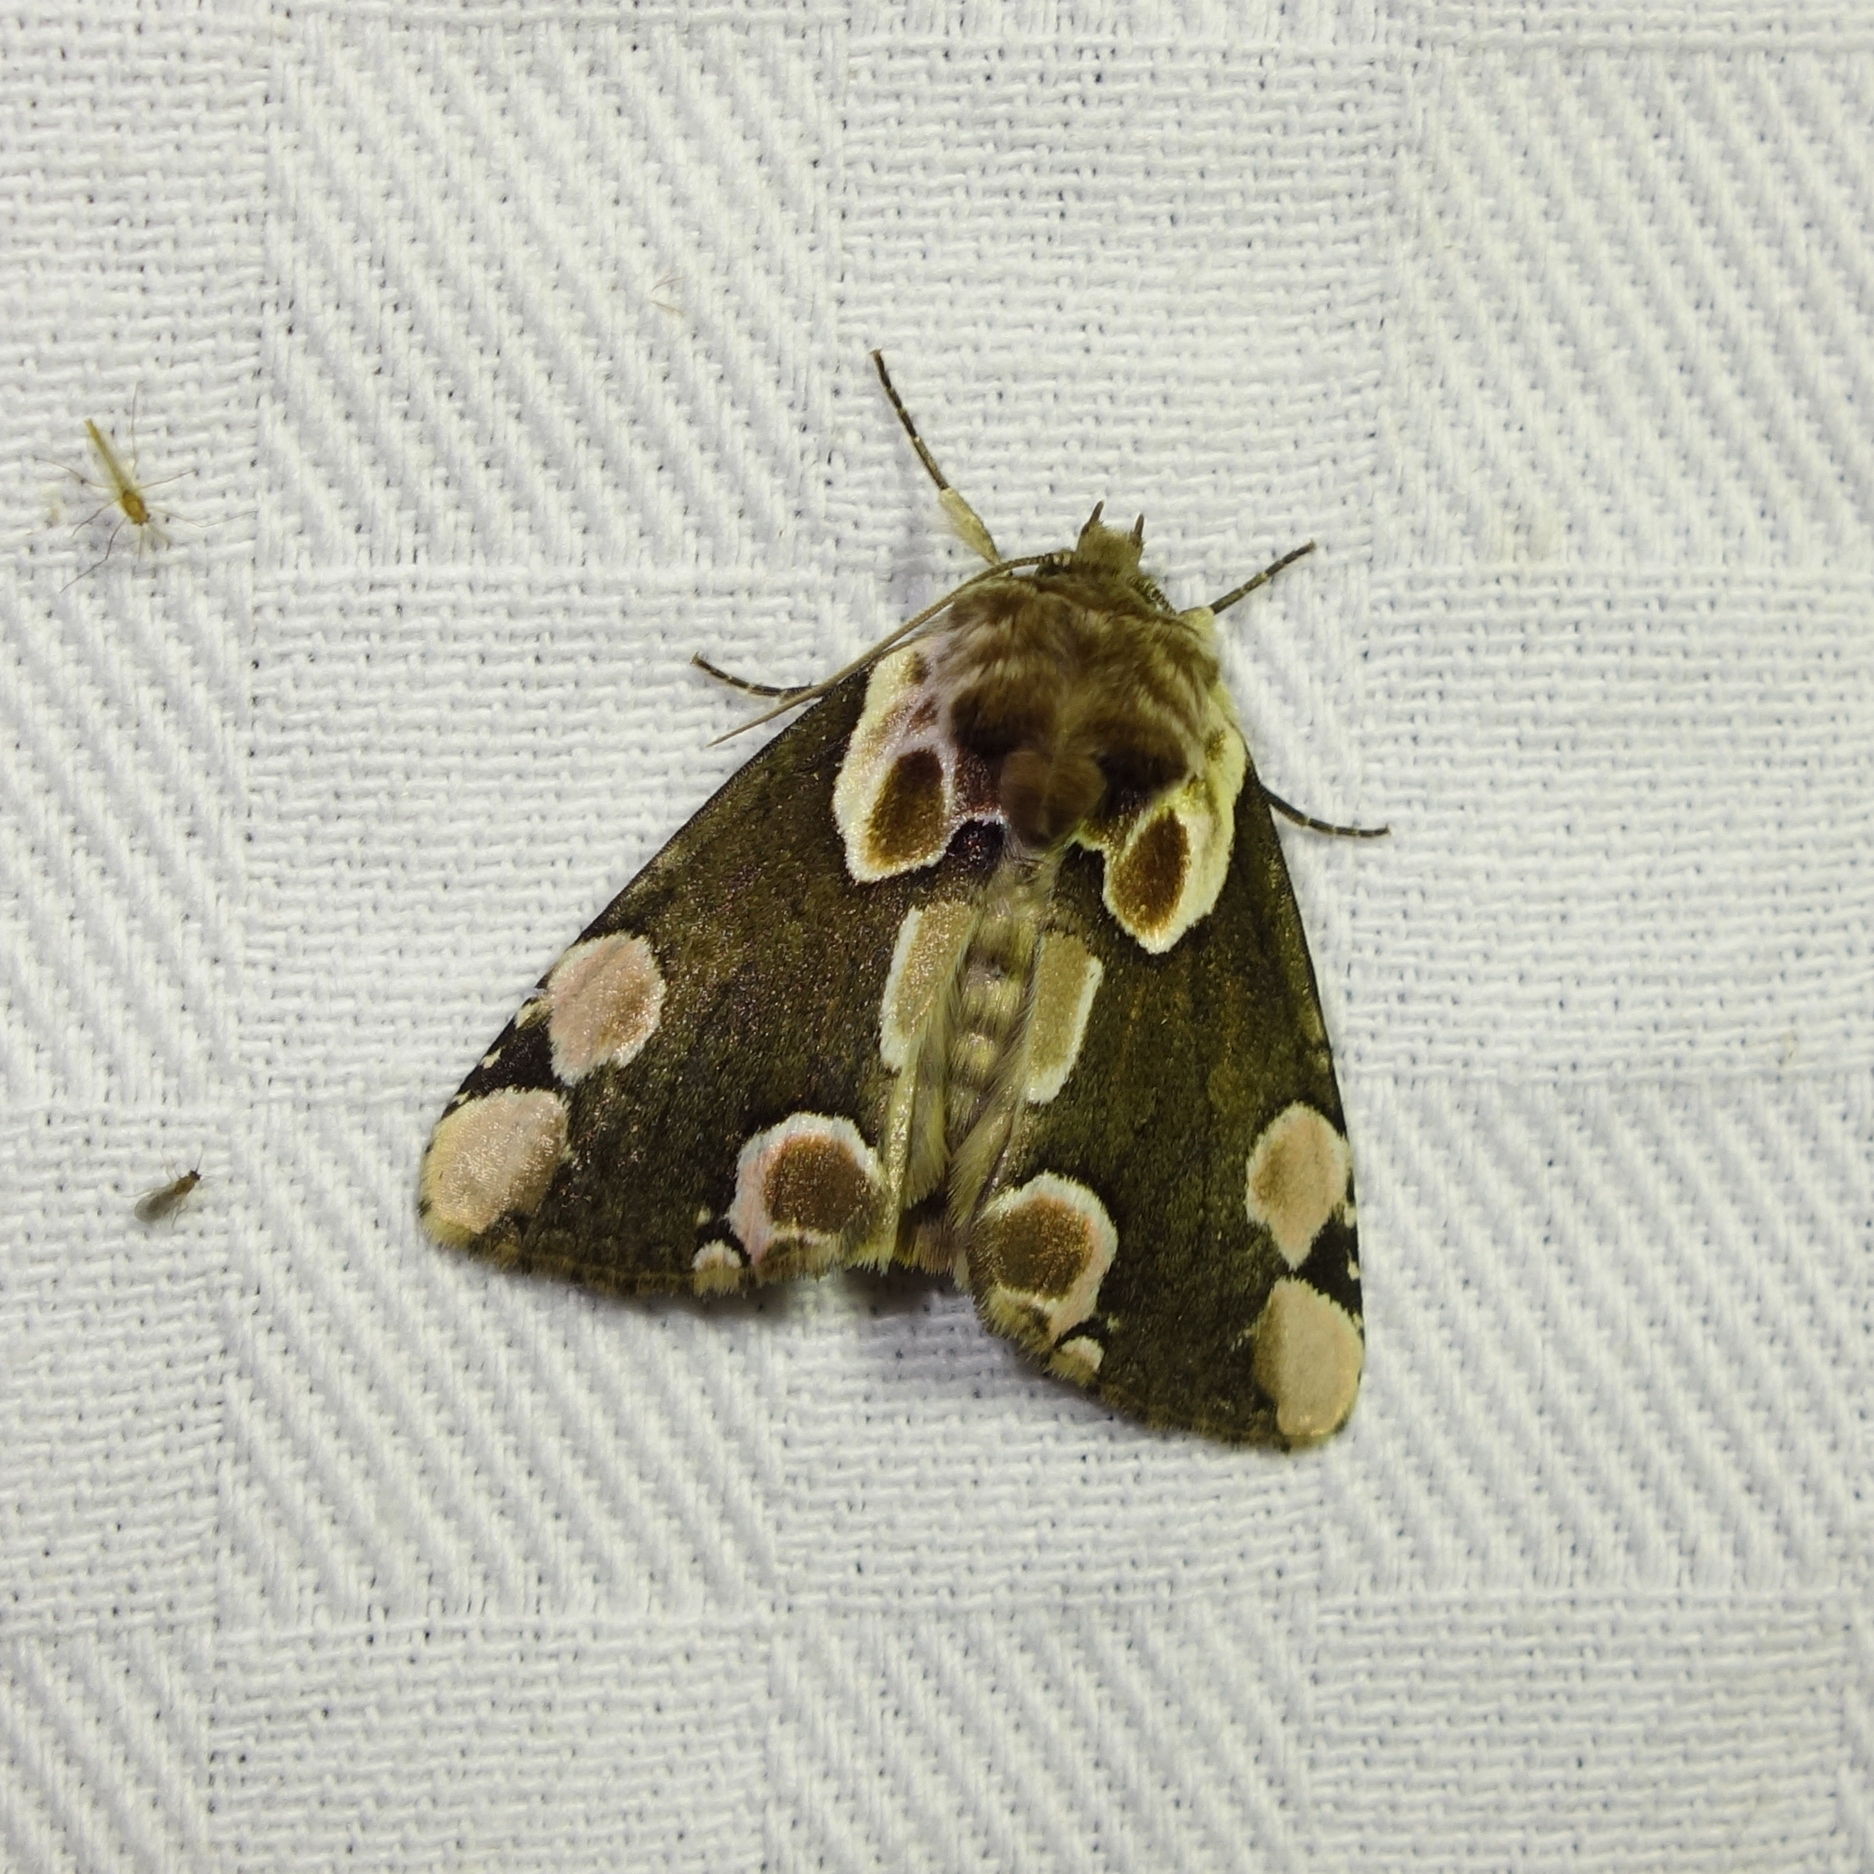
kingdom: Animalia
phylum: Arthropoda
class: Insecta
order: Lepidoptera
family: Drepanidae
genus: Thyatira
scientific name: Thyatira batis
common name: Peach blossom
